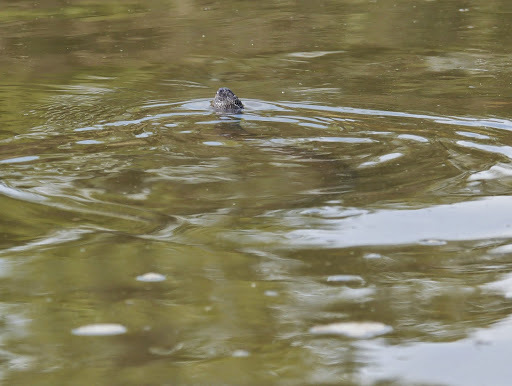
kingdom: Animalia
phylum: Chordata
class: Squamata
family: Colubridae
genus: Nerodia
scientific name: Nerodia sipedon
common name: Northern water snake
